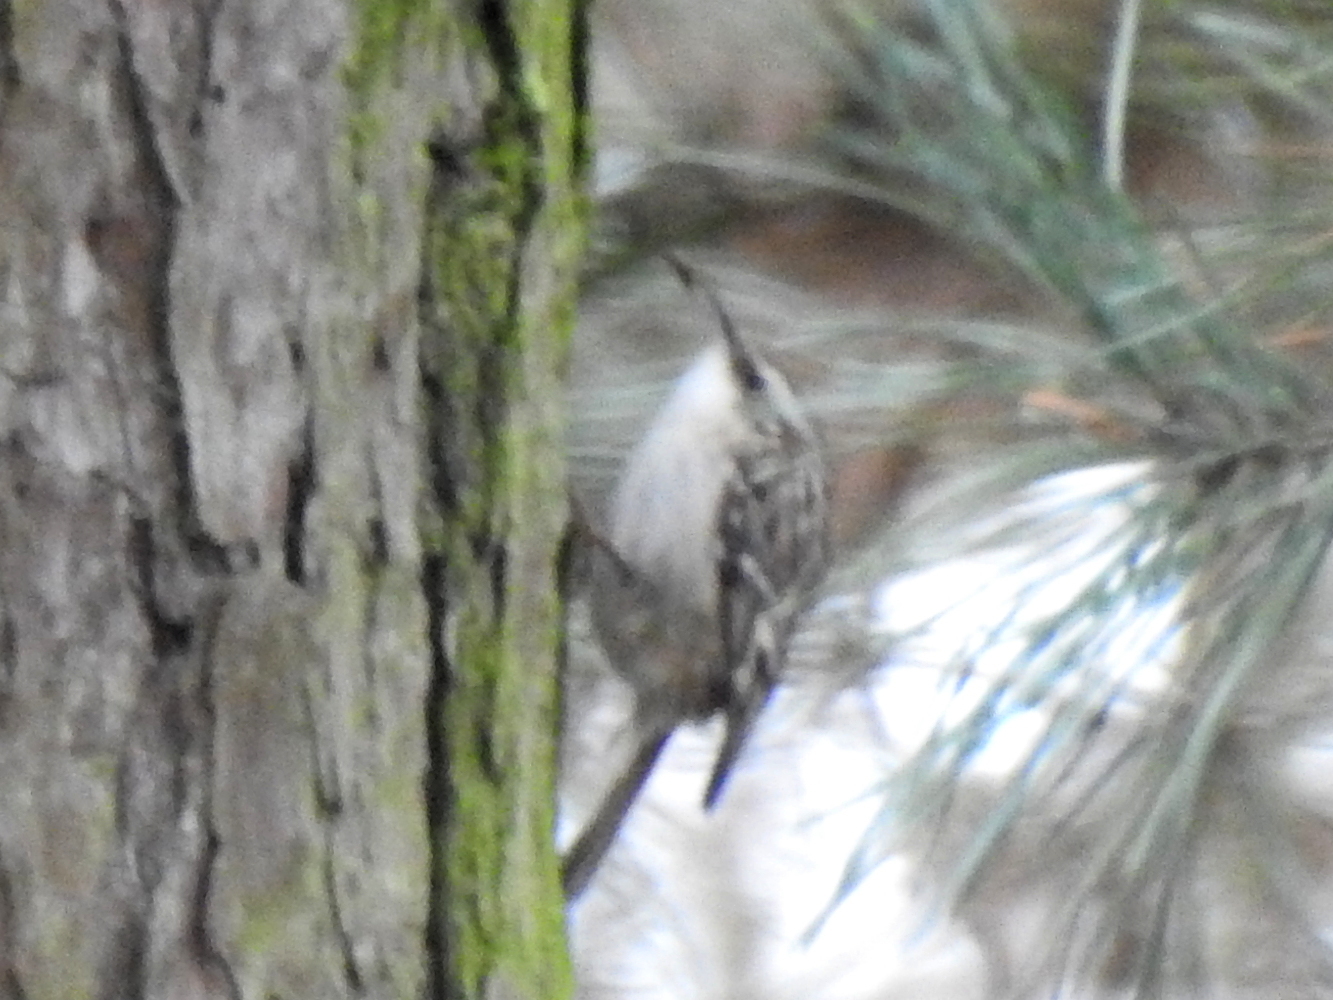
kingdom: Animalia
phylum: Chordata
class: Aves
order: Passeriformes
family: Certhiidae
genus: Certhia
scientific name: Certhia brachydactyla
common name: Short-toed treecreeper
